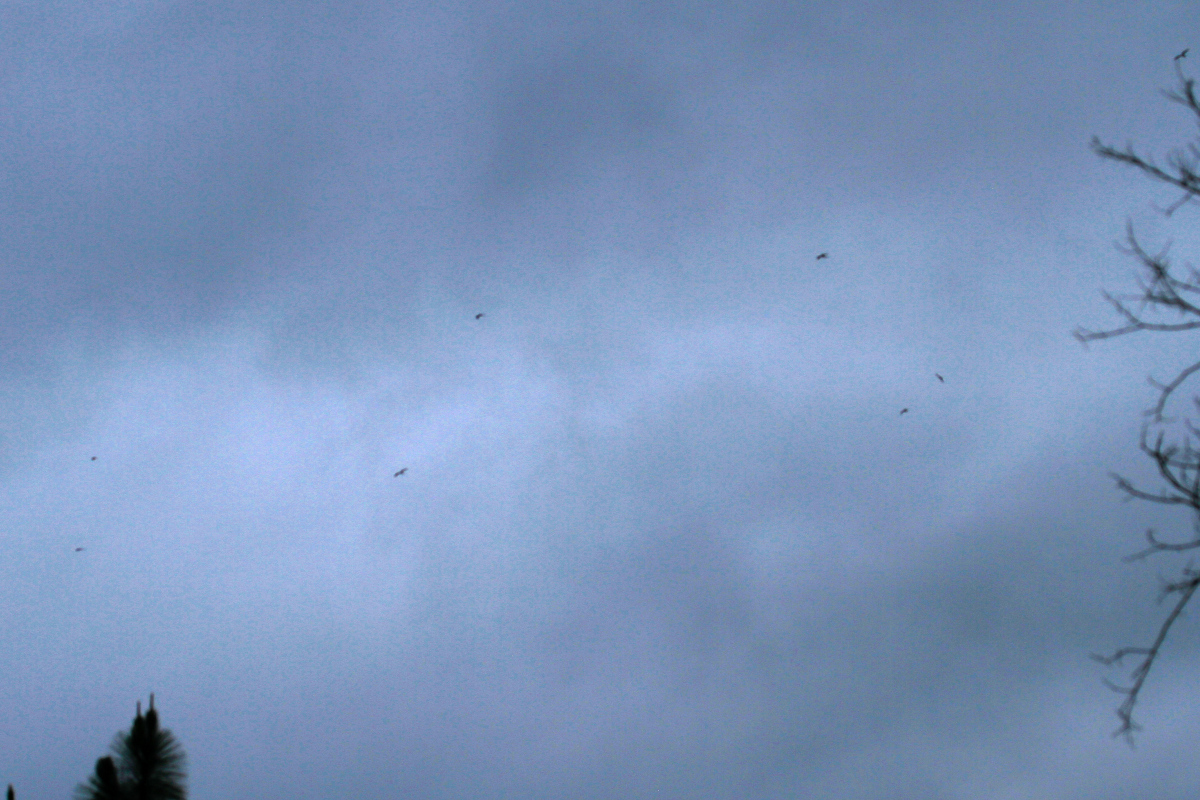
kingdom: Animalia
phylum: Chordata
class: Aves
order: Accipitriformes
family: Accipitridae
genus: Elanoides
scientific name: Elanoides forficatus
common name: Swallow-tailed kite
